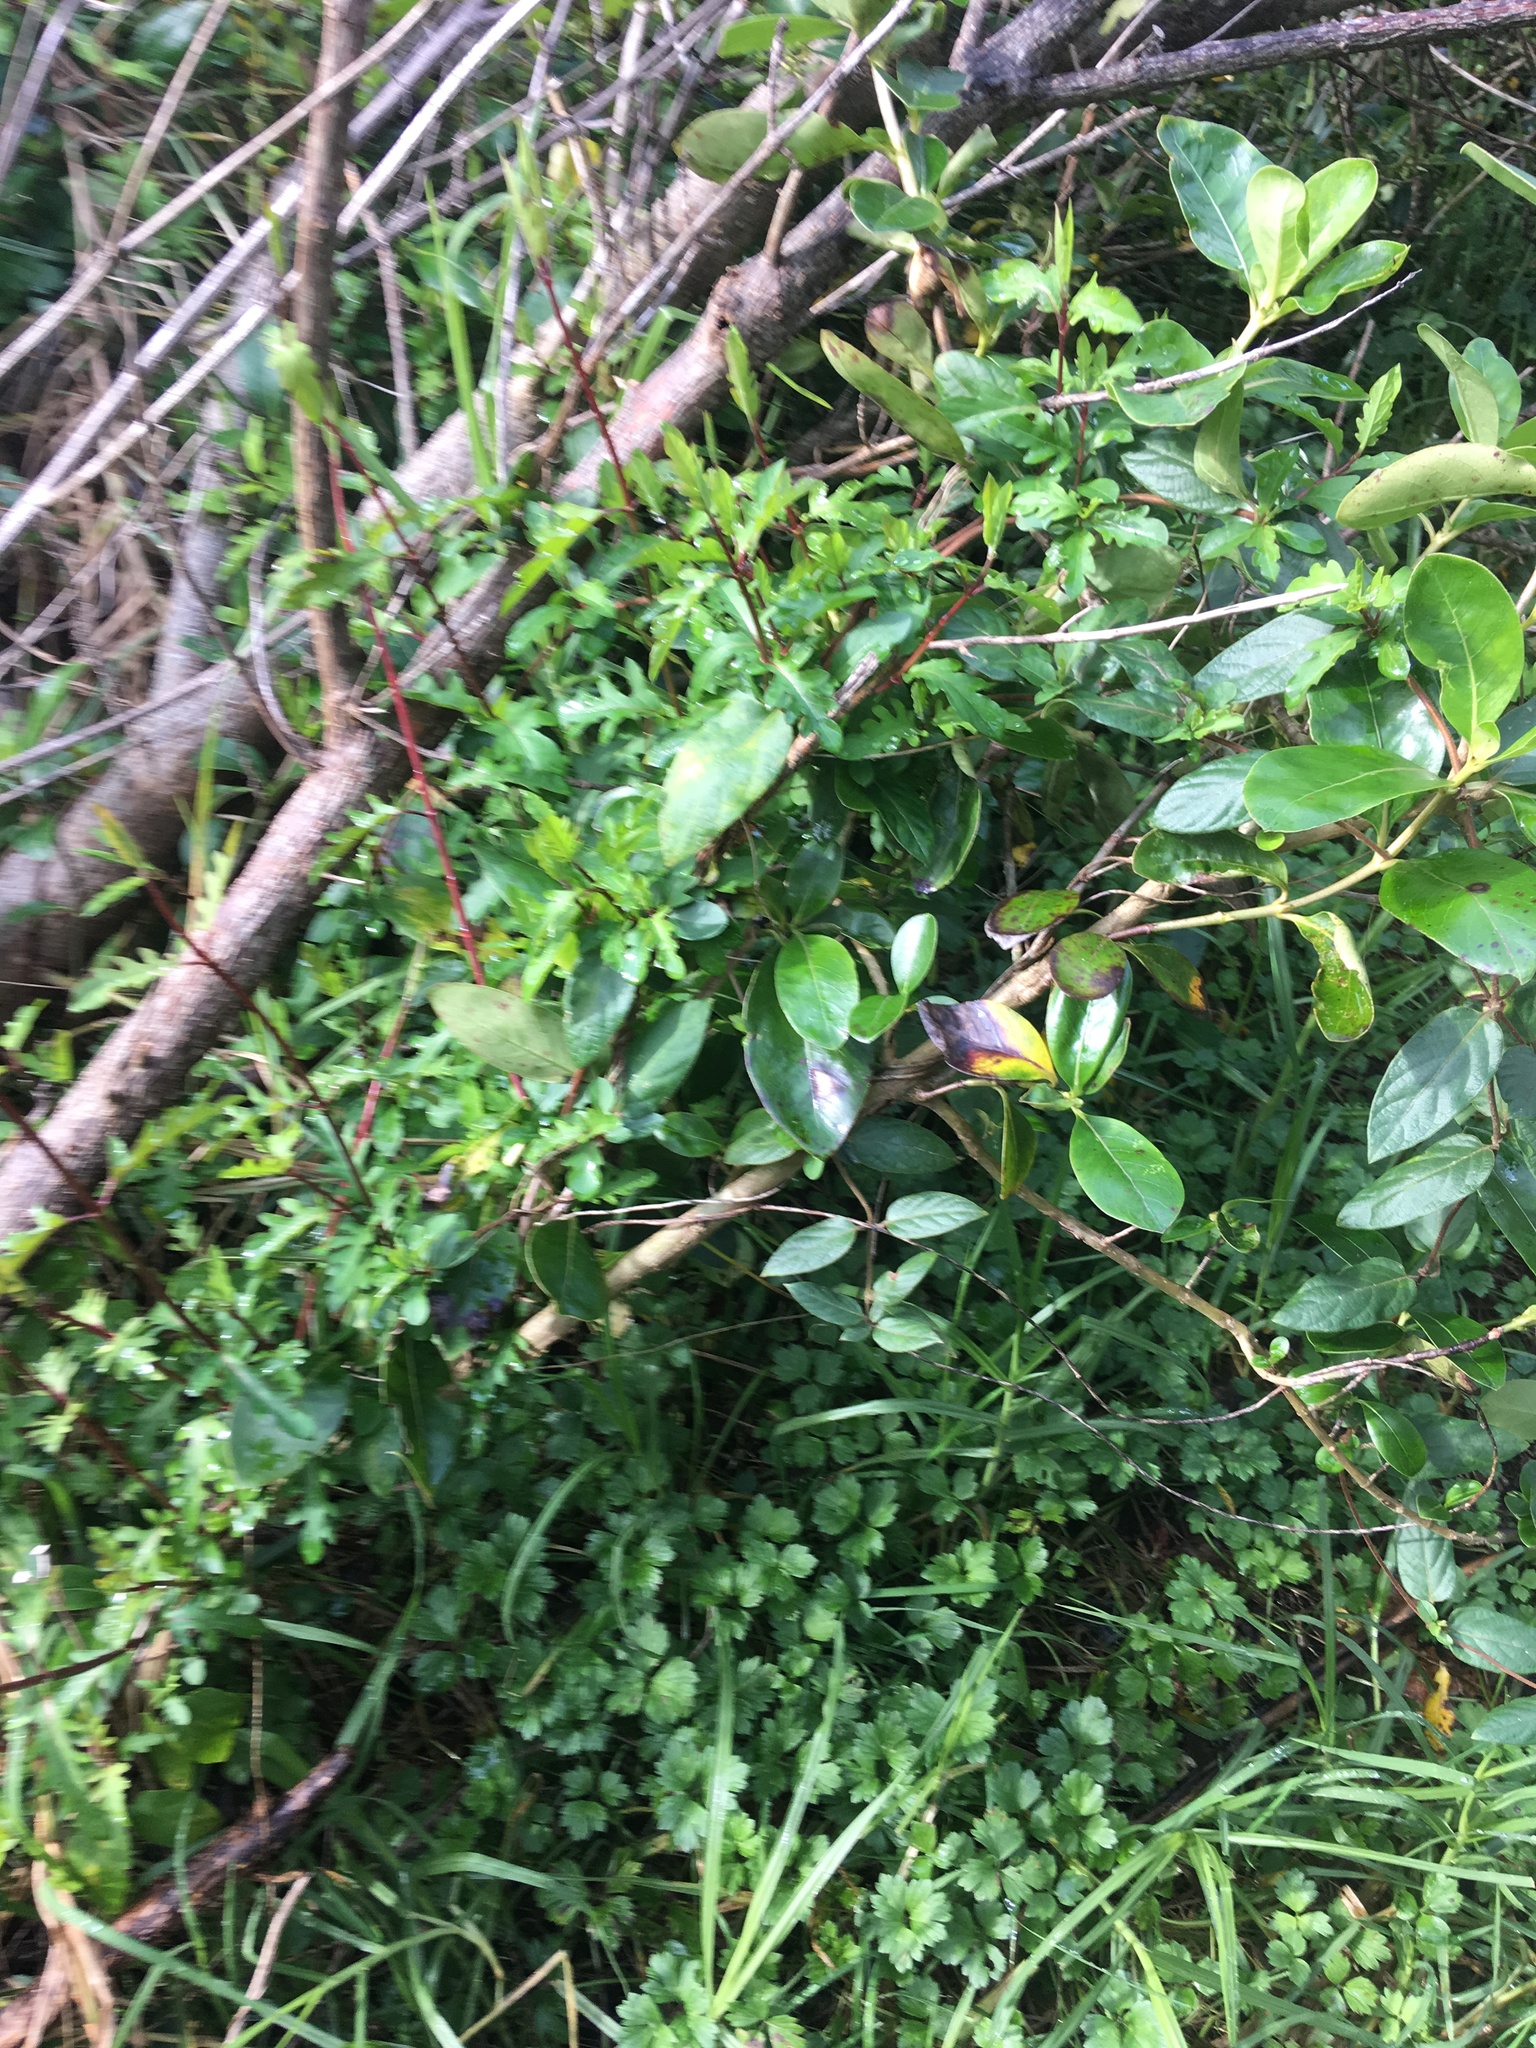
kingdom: Plantae
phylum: Tracheophyta
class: Liliopsida
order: Poales
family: Poaceae
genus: Cenchrus
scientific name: Cenchrus clandestinus
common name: Kikuyugrass
